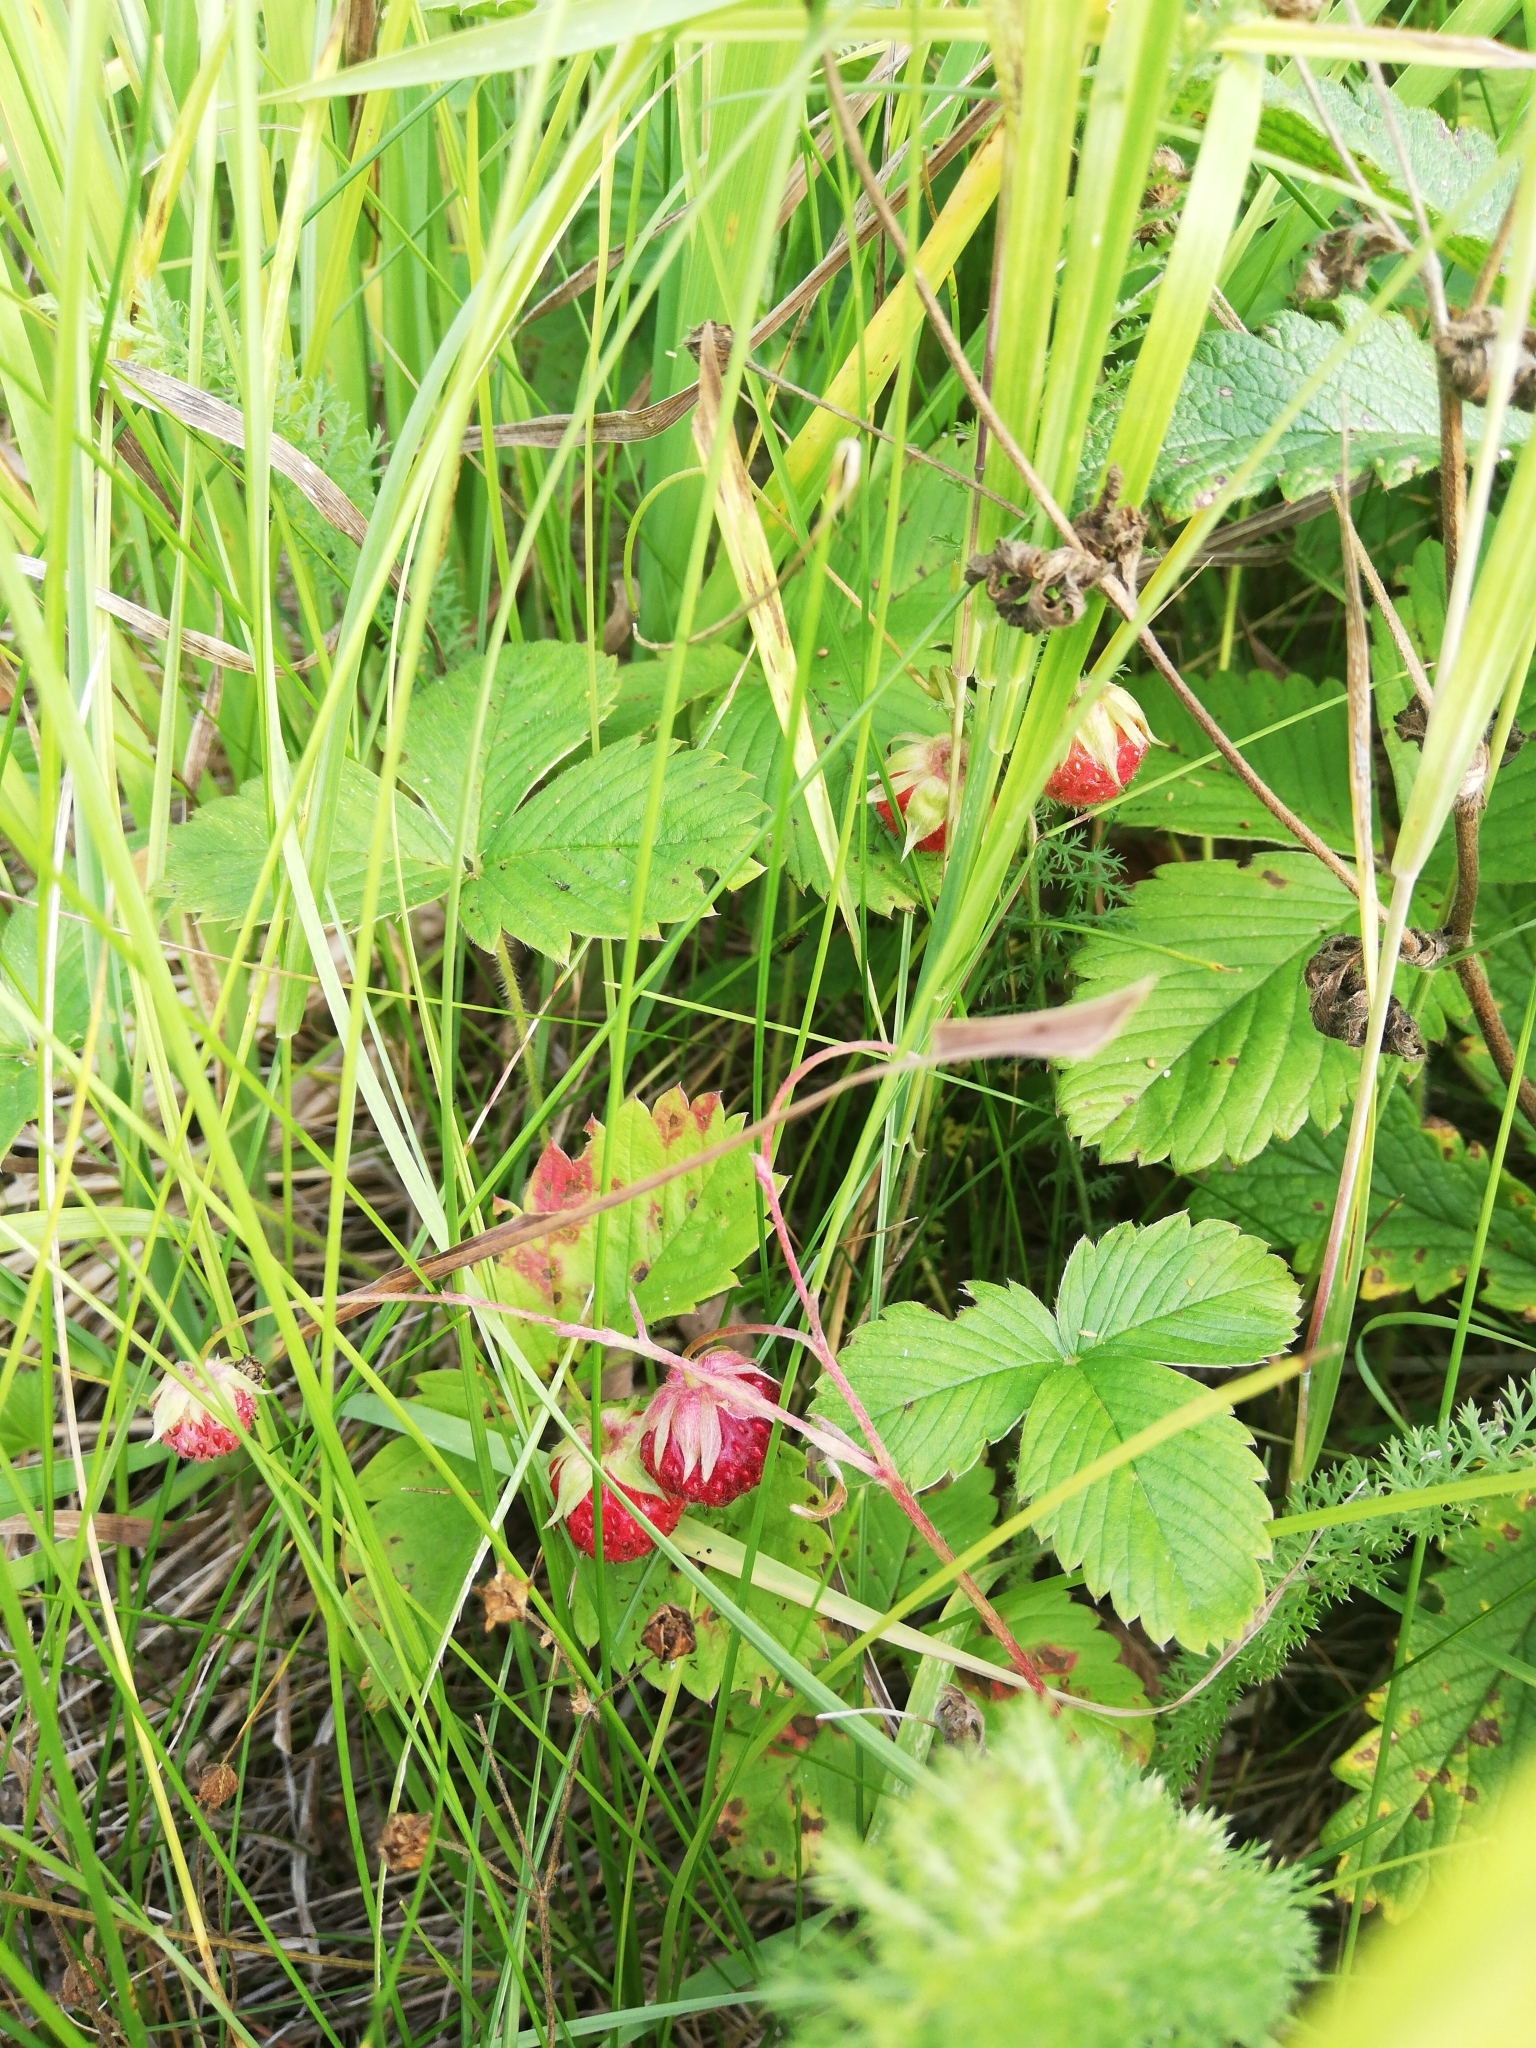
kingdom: Plantae
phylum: Tracheophyta
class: Magnoliopsida
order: Rosales
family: Rosaceae
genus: Fragaria
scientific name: Fragaria viridis
